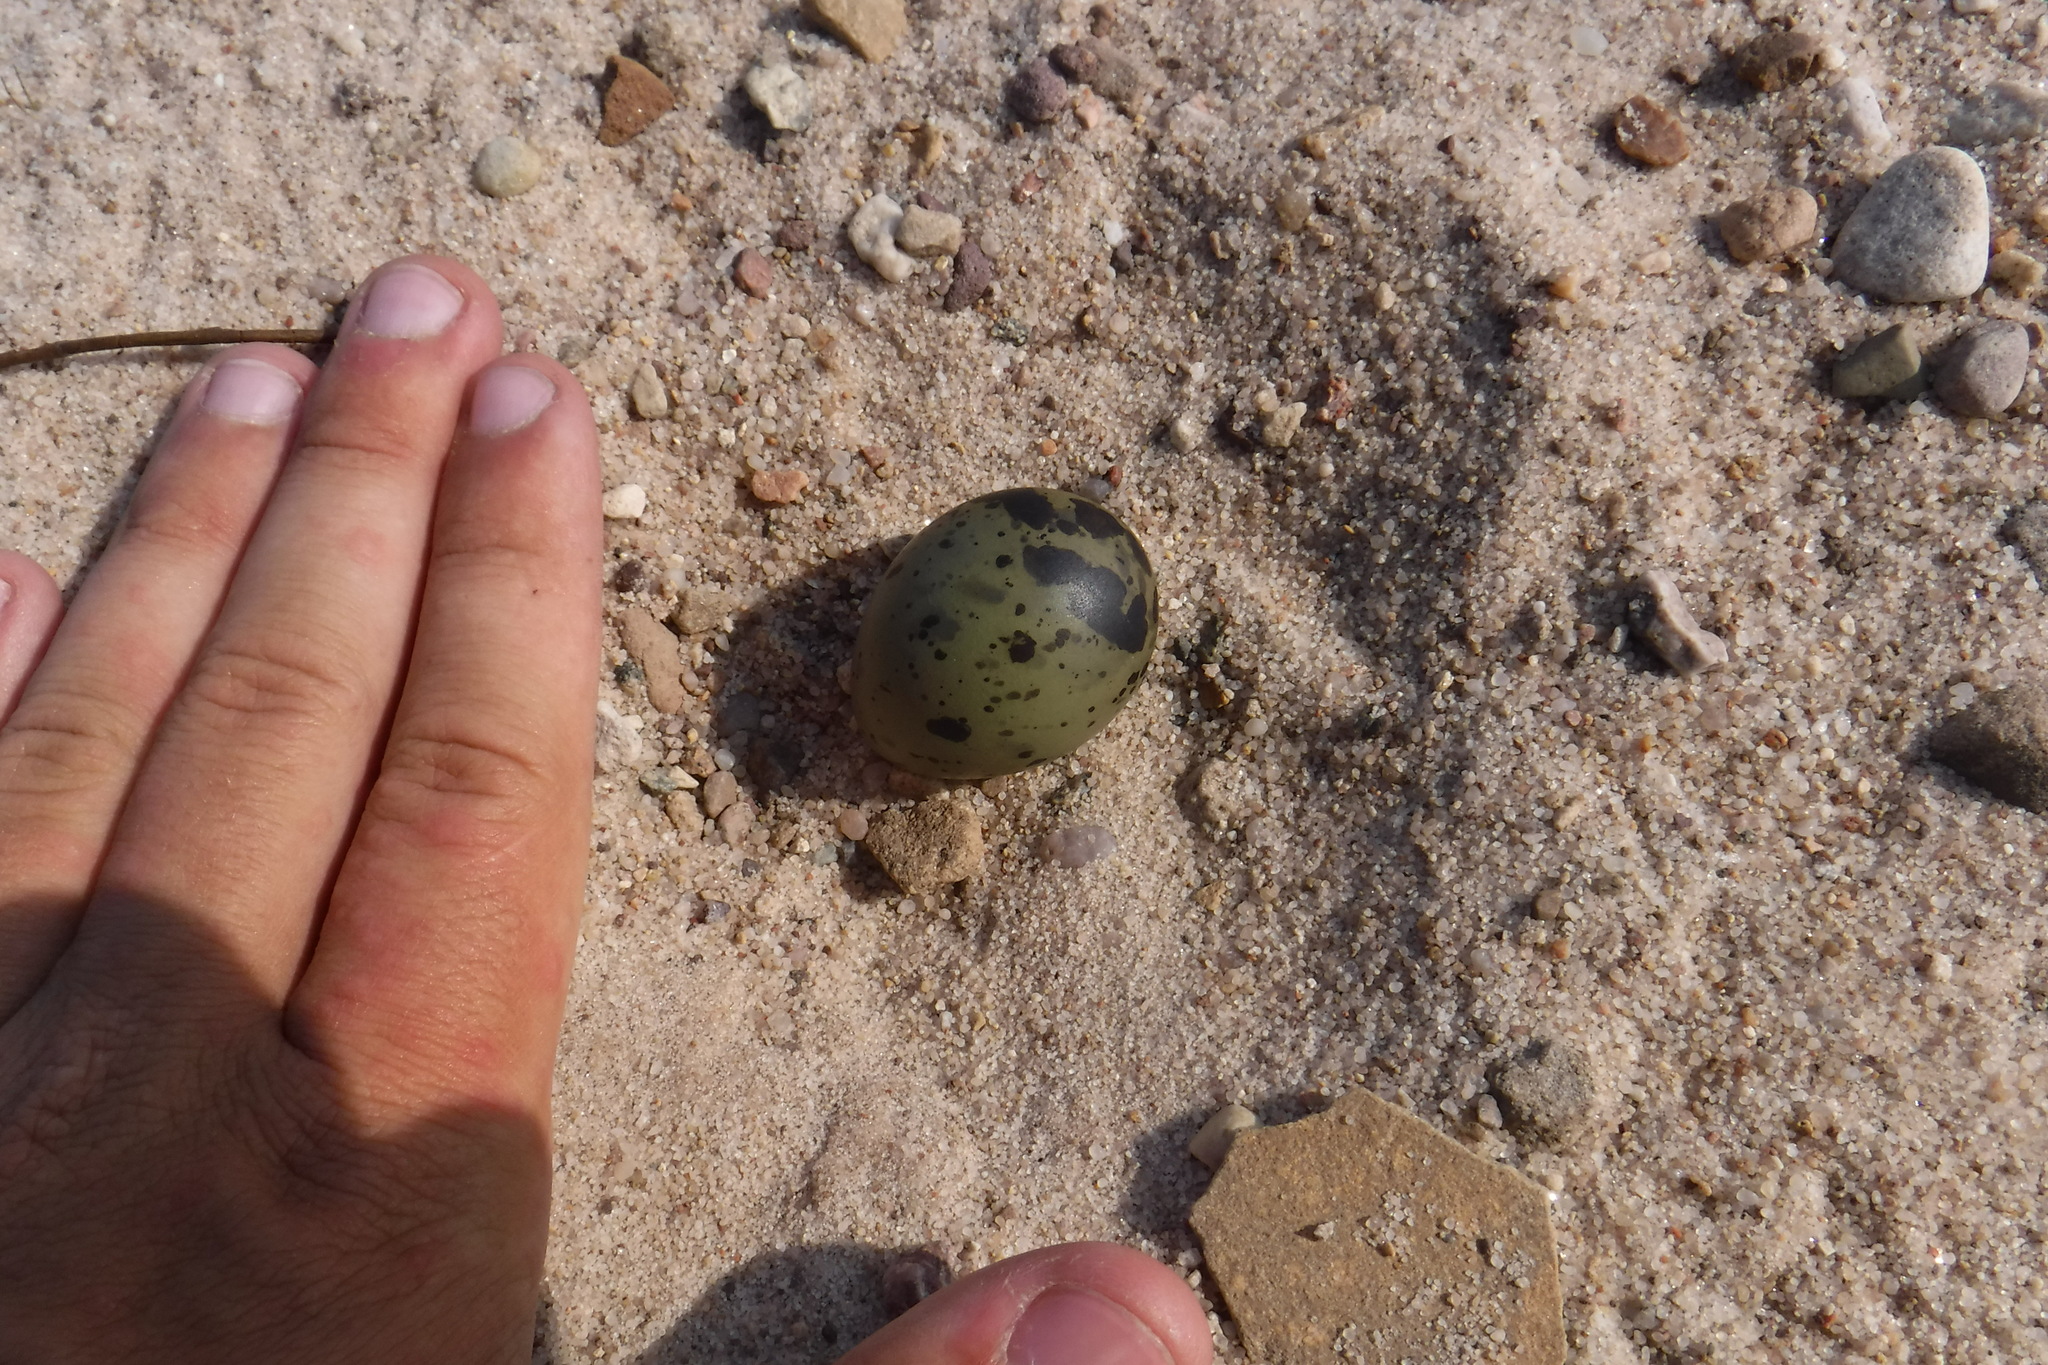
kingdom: Animalia
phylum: Chordata
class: Aves
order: Charadriiformes
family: Laridae
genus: Sterna
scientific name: Sterna paradisaea
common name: Arctic tern
